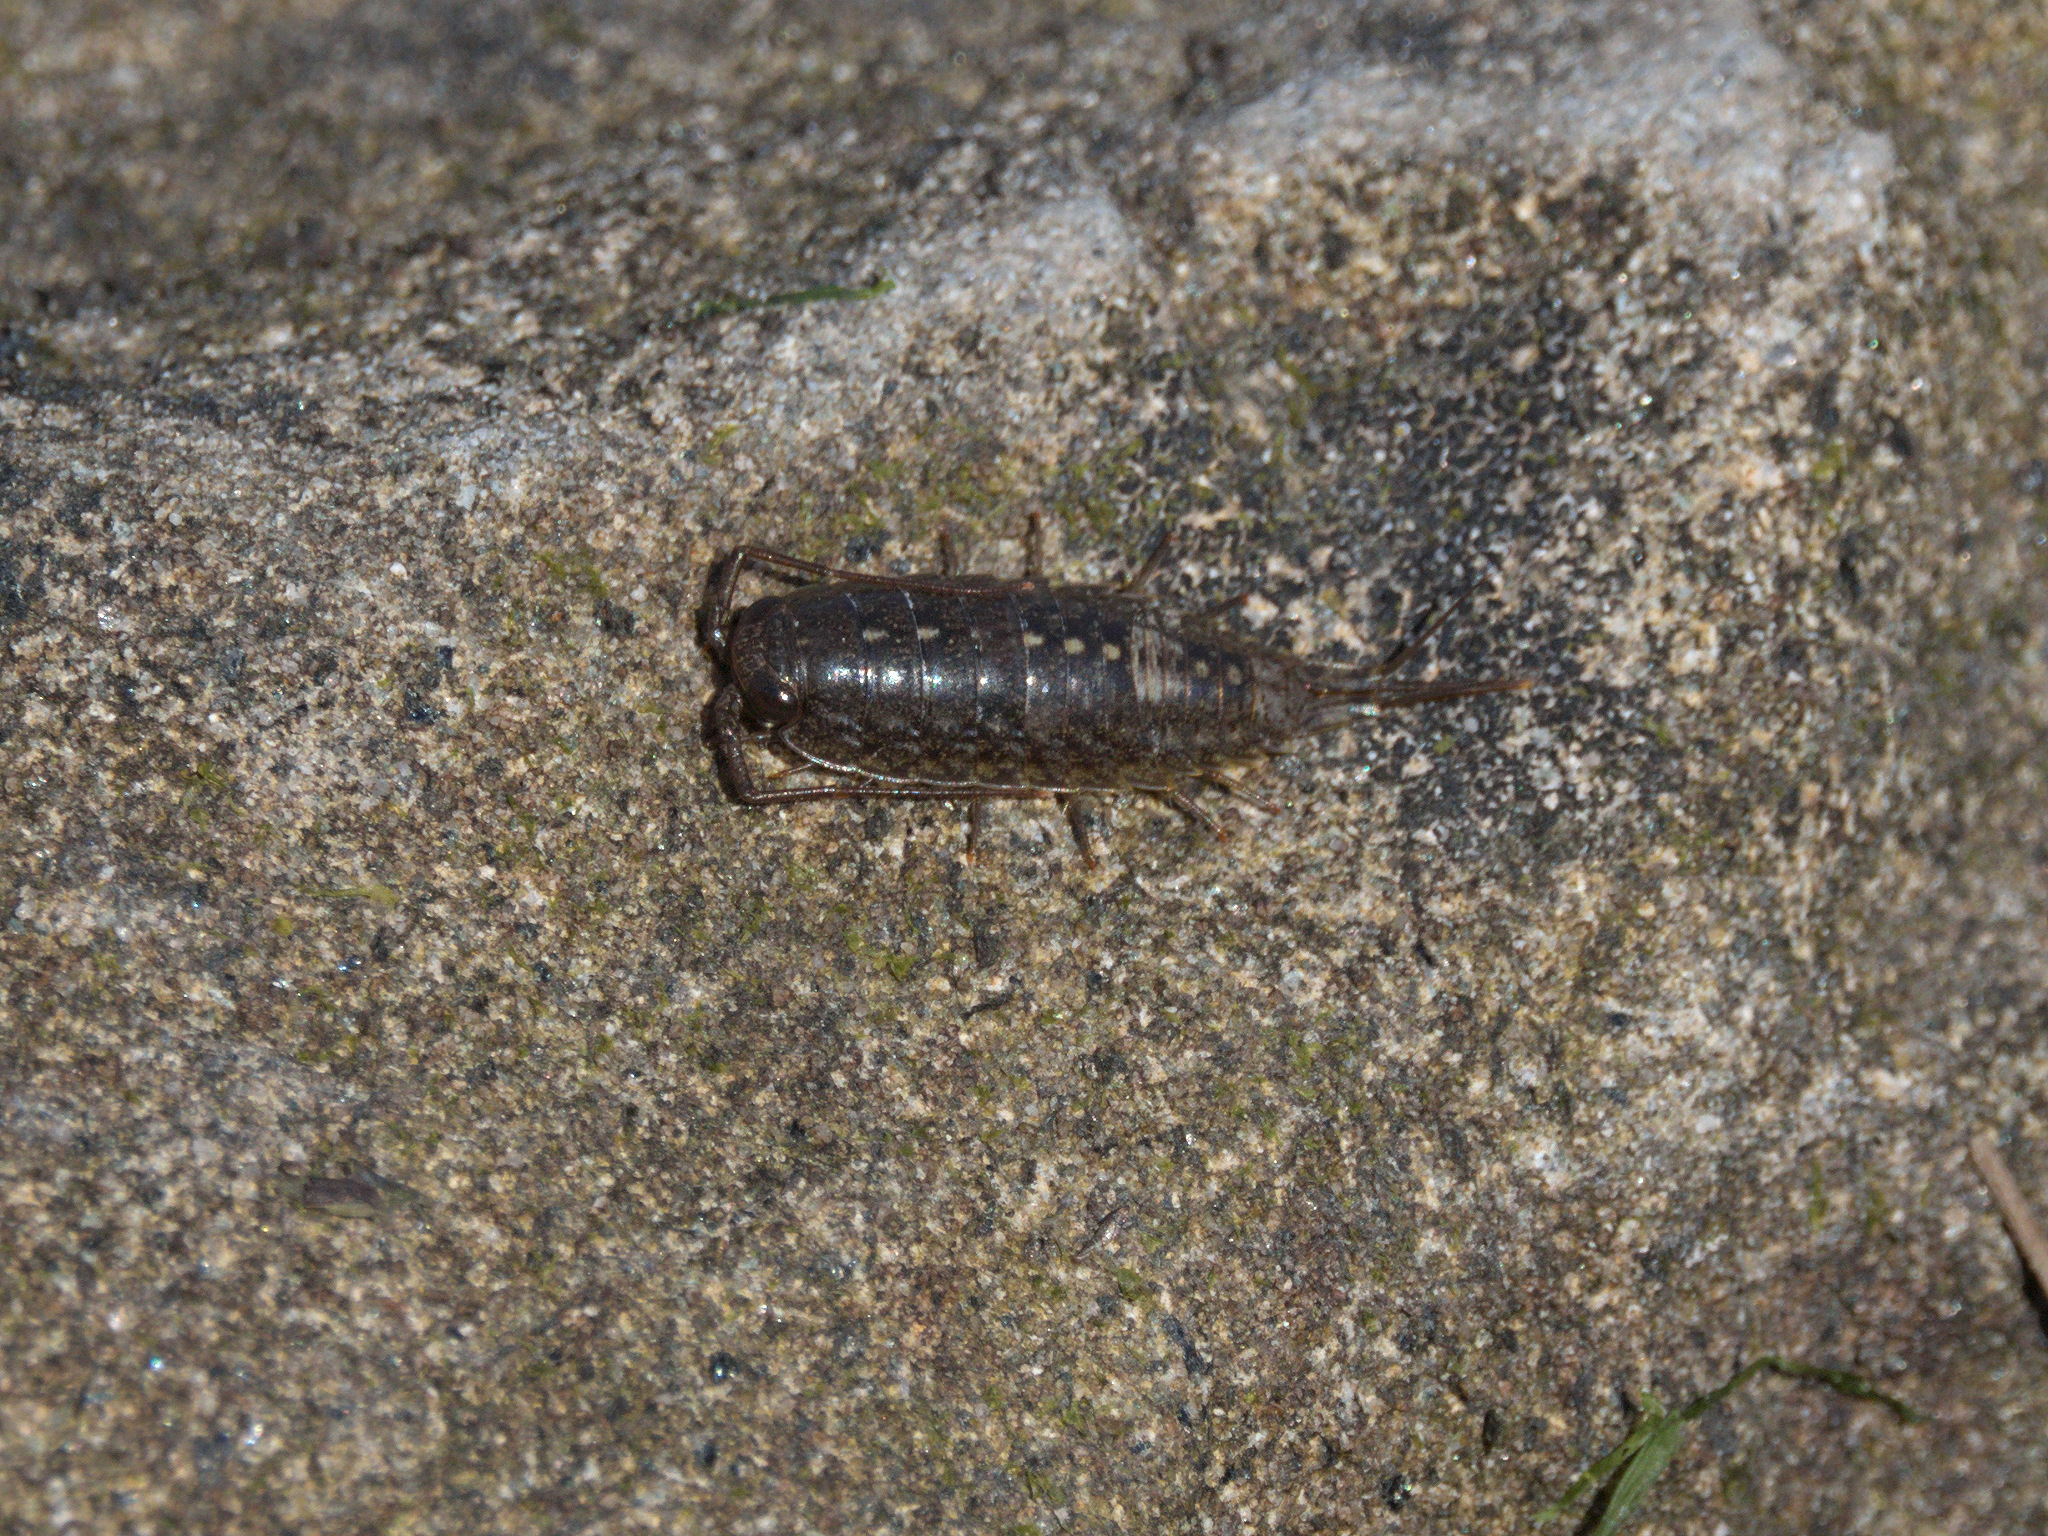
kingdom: Animalia
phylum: Arthropoda
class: Malacostraca
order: Isopoda
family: Ligiidae
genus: Ligia
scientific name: Ligia occidentalis
